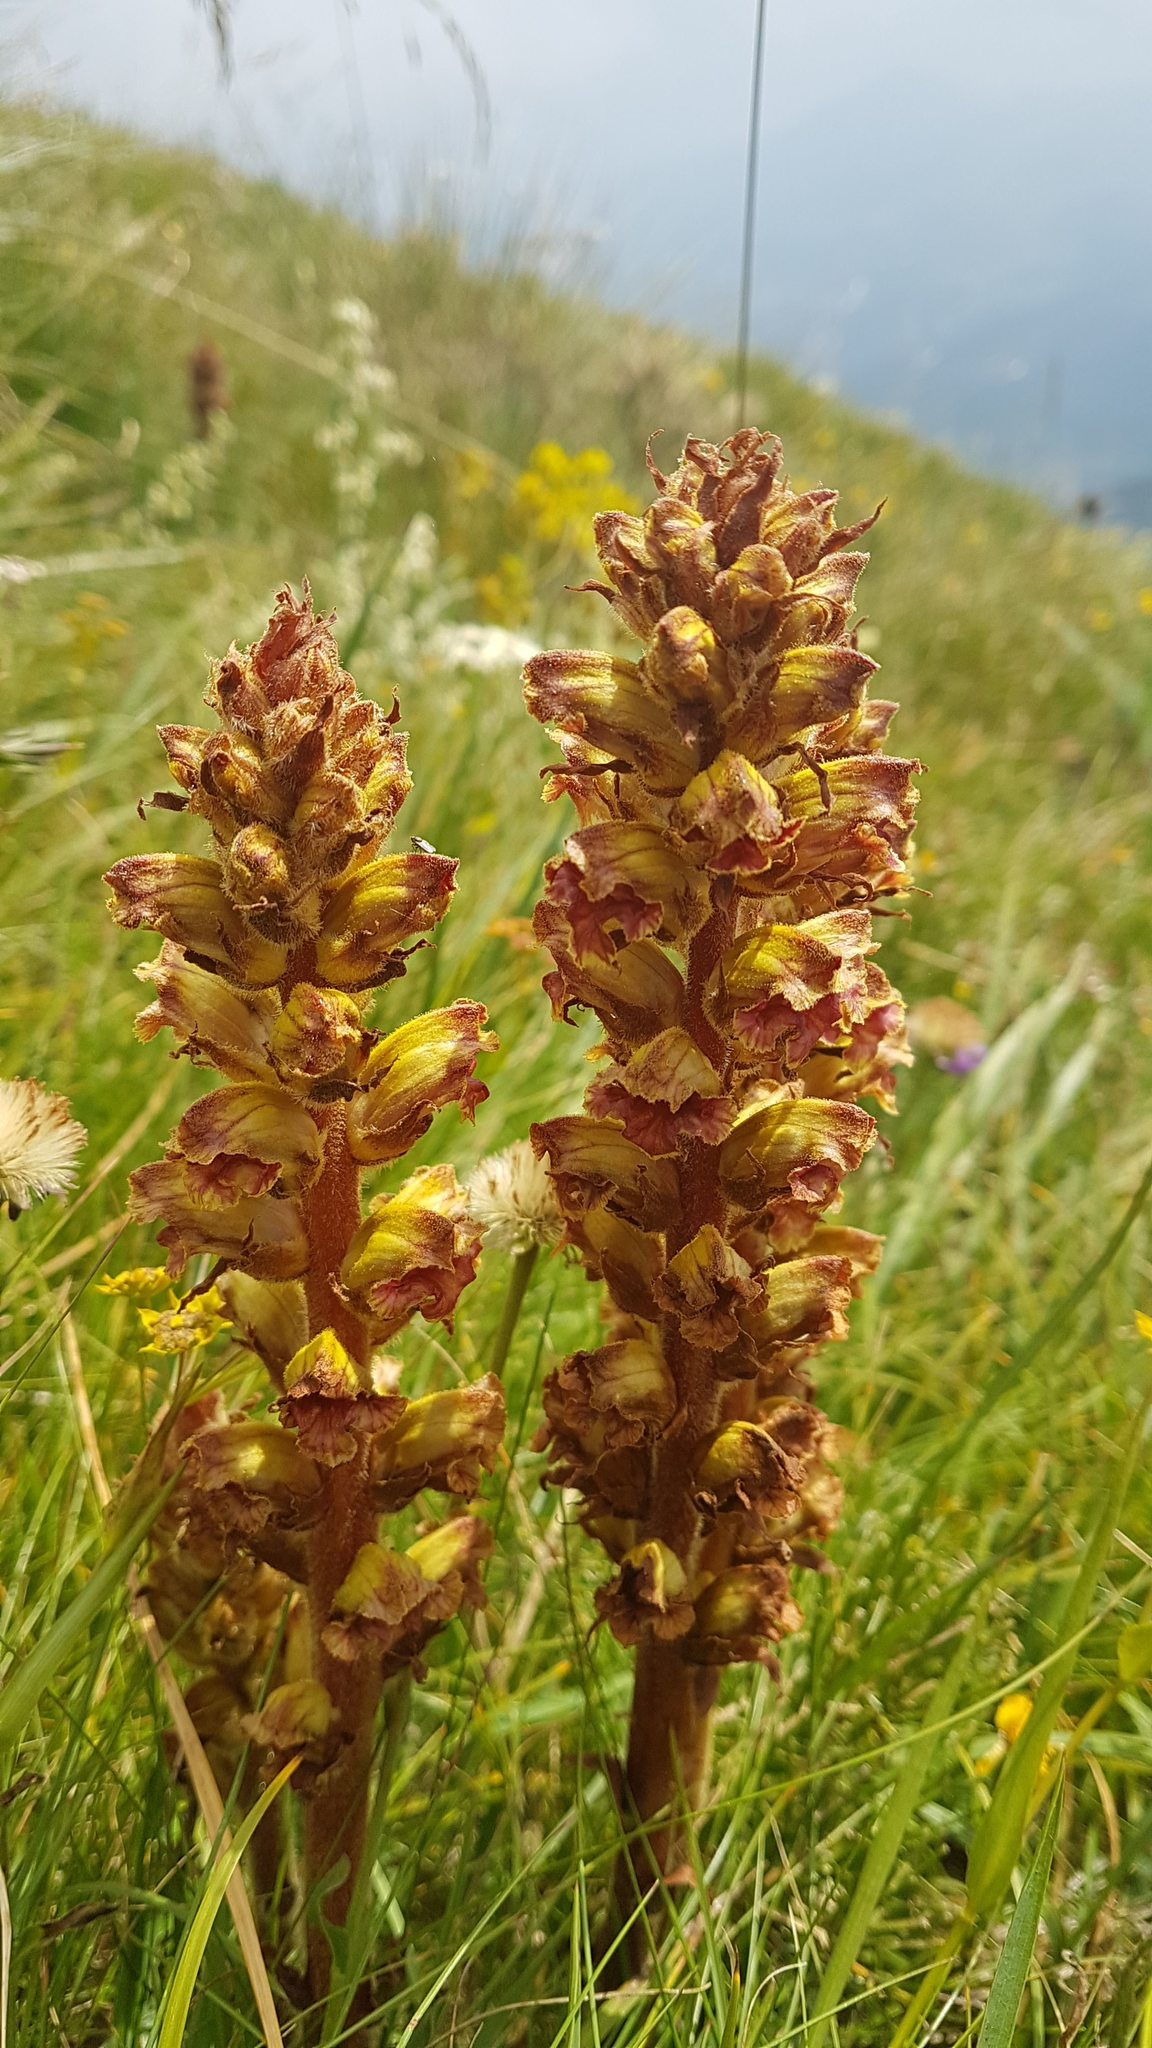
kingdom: Plantae
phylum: Tracheophyta
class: Magnoliopsida
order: Lamiales
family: Orobanchaceae
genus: Orobanche
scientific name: Orobanche gracilis
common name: Slender broomrape
